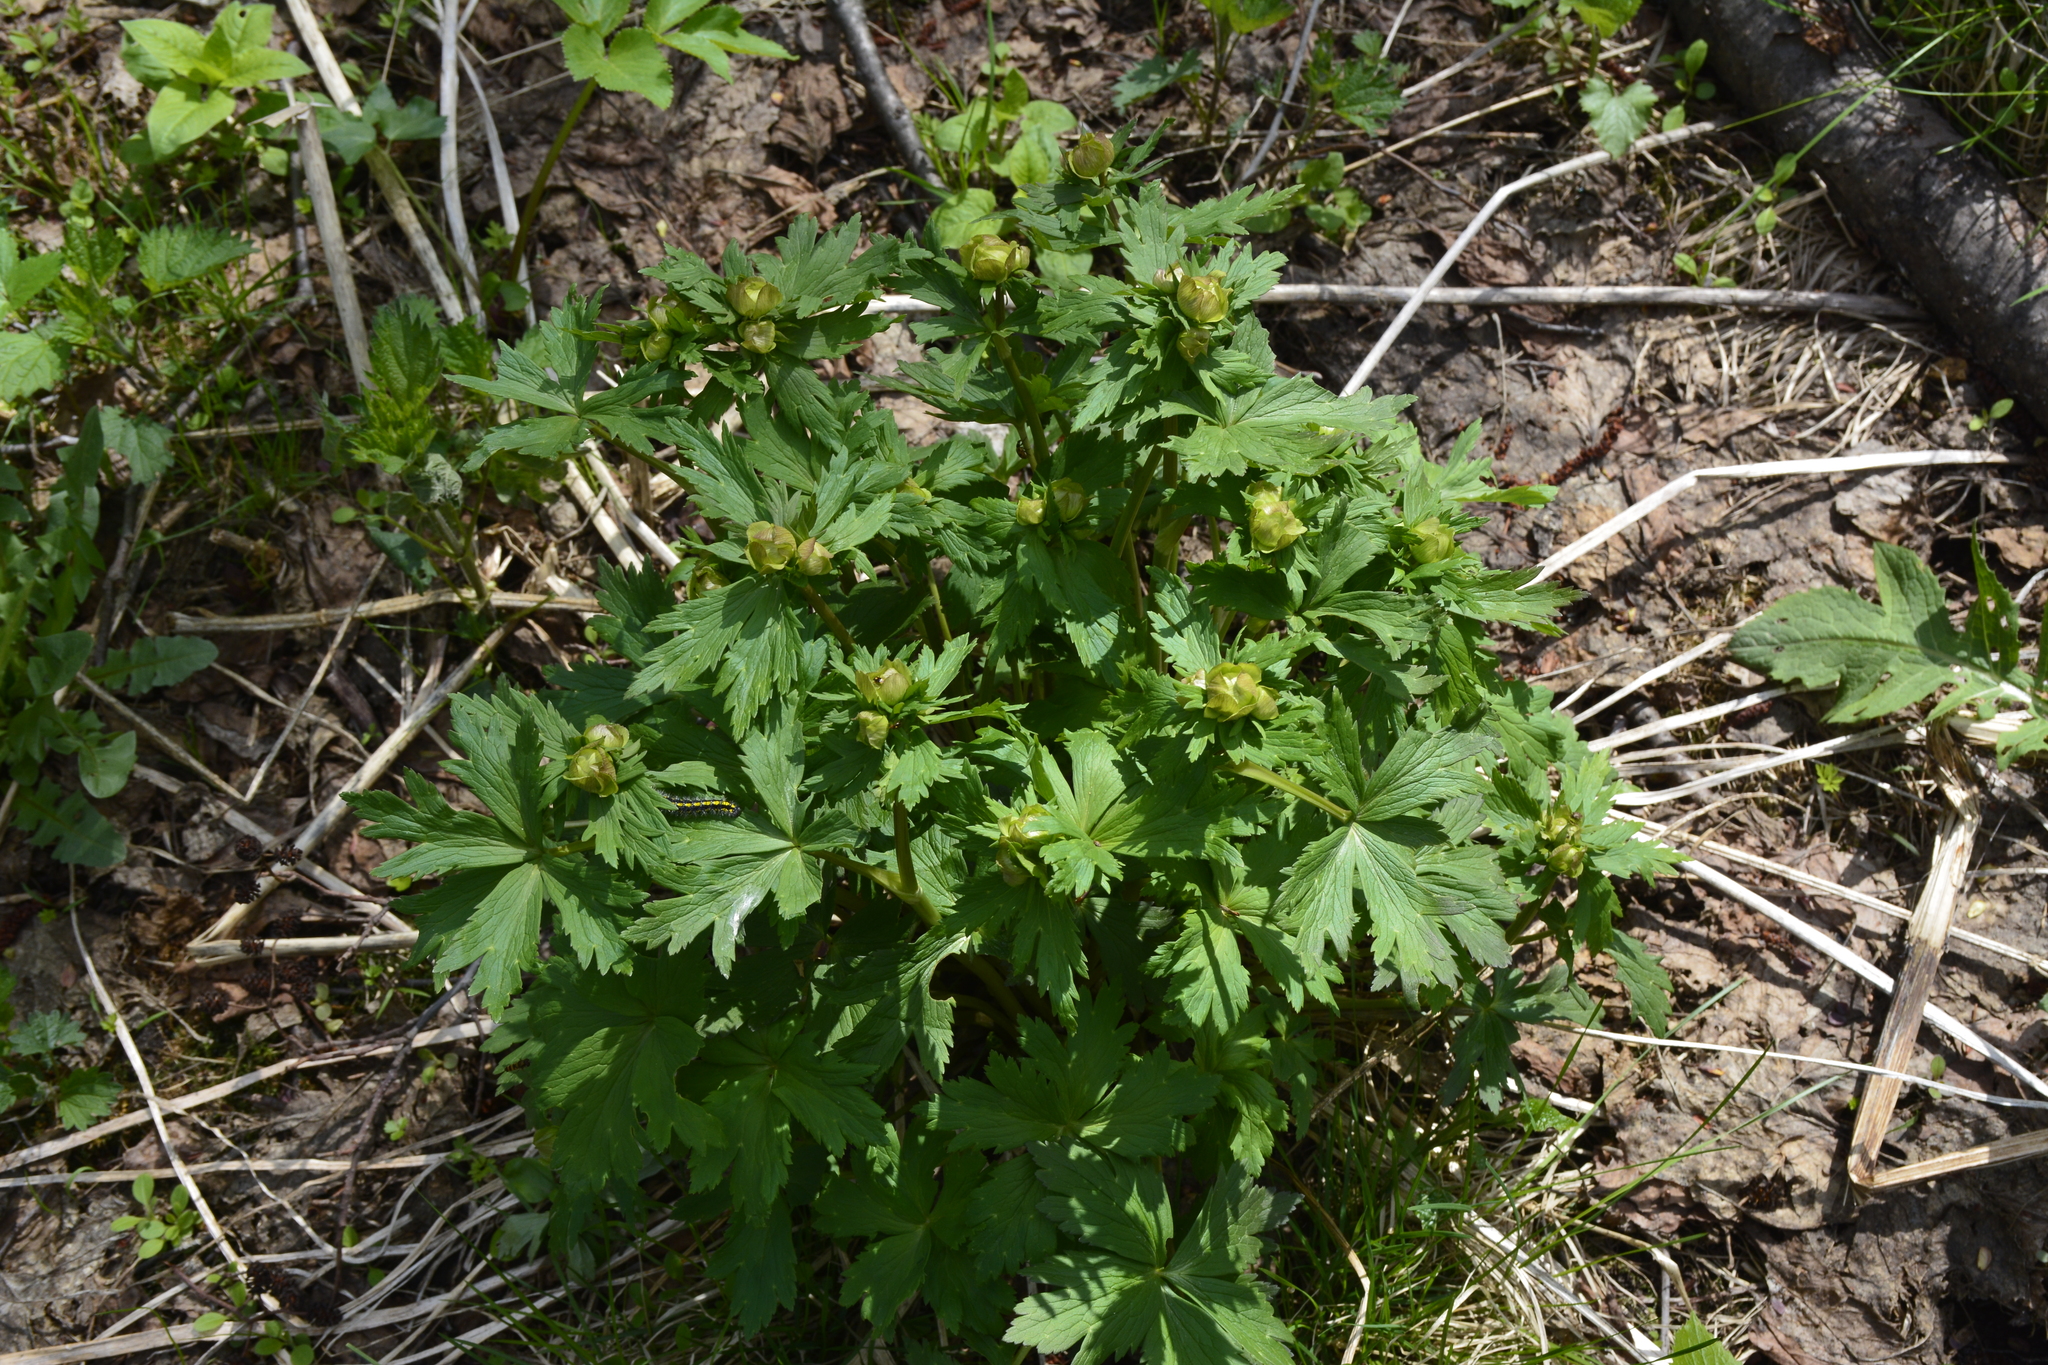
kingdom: Plantae
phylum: Tracheophyta
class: Magnoliopsida
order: Ranunculales
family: Ranunculaceae
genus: Trollius
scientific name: Trollius europaeus
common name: European globeflower
